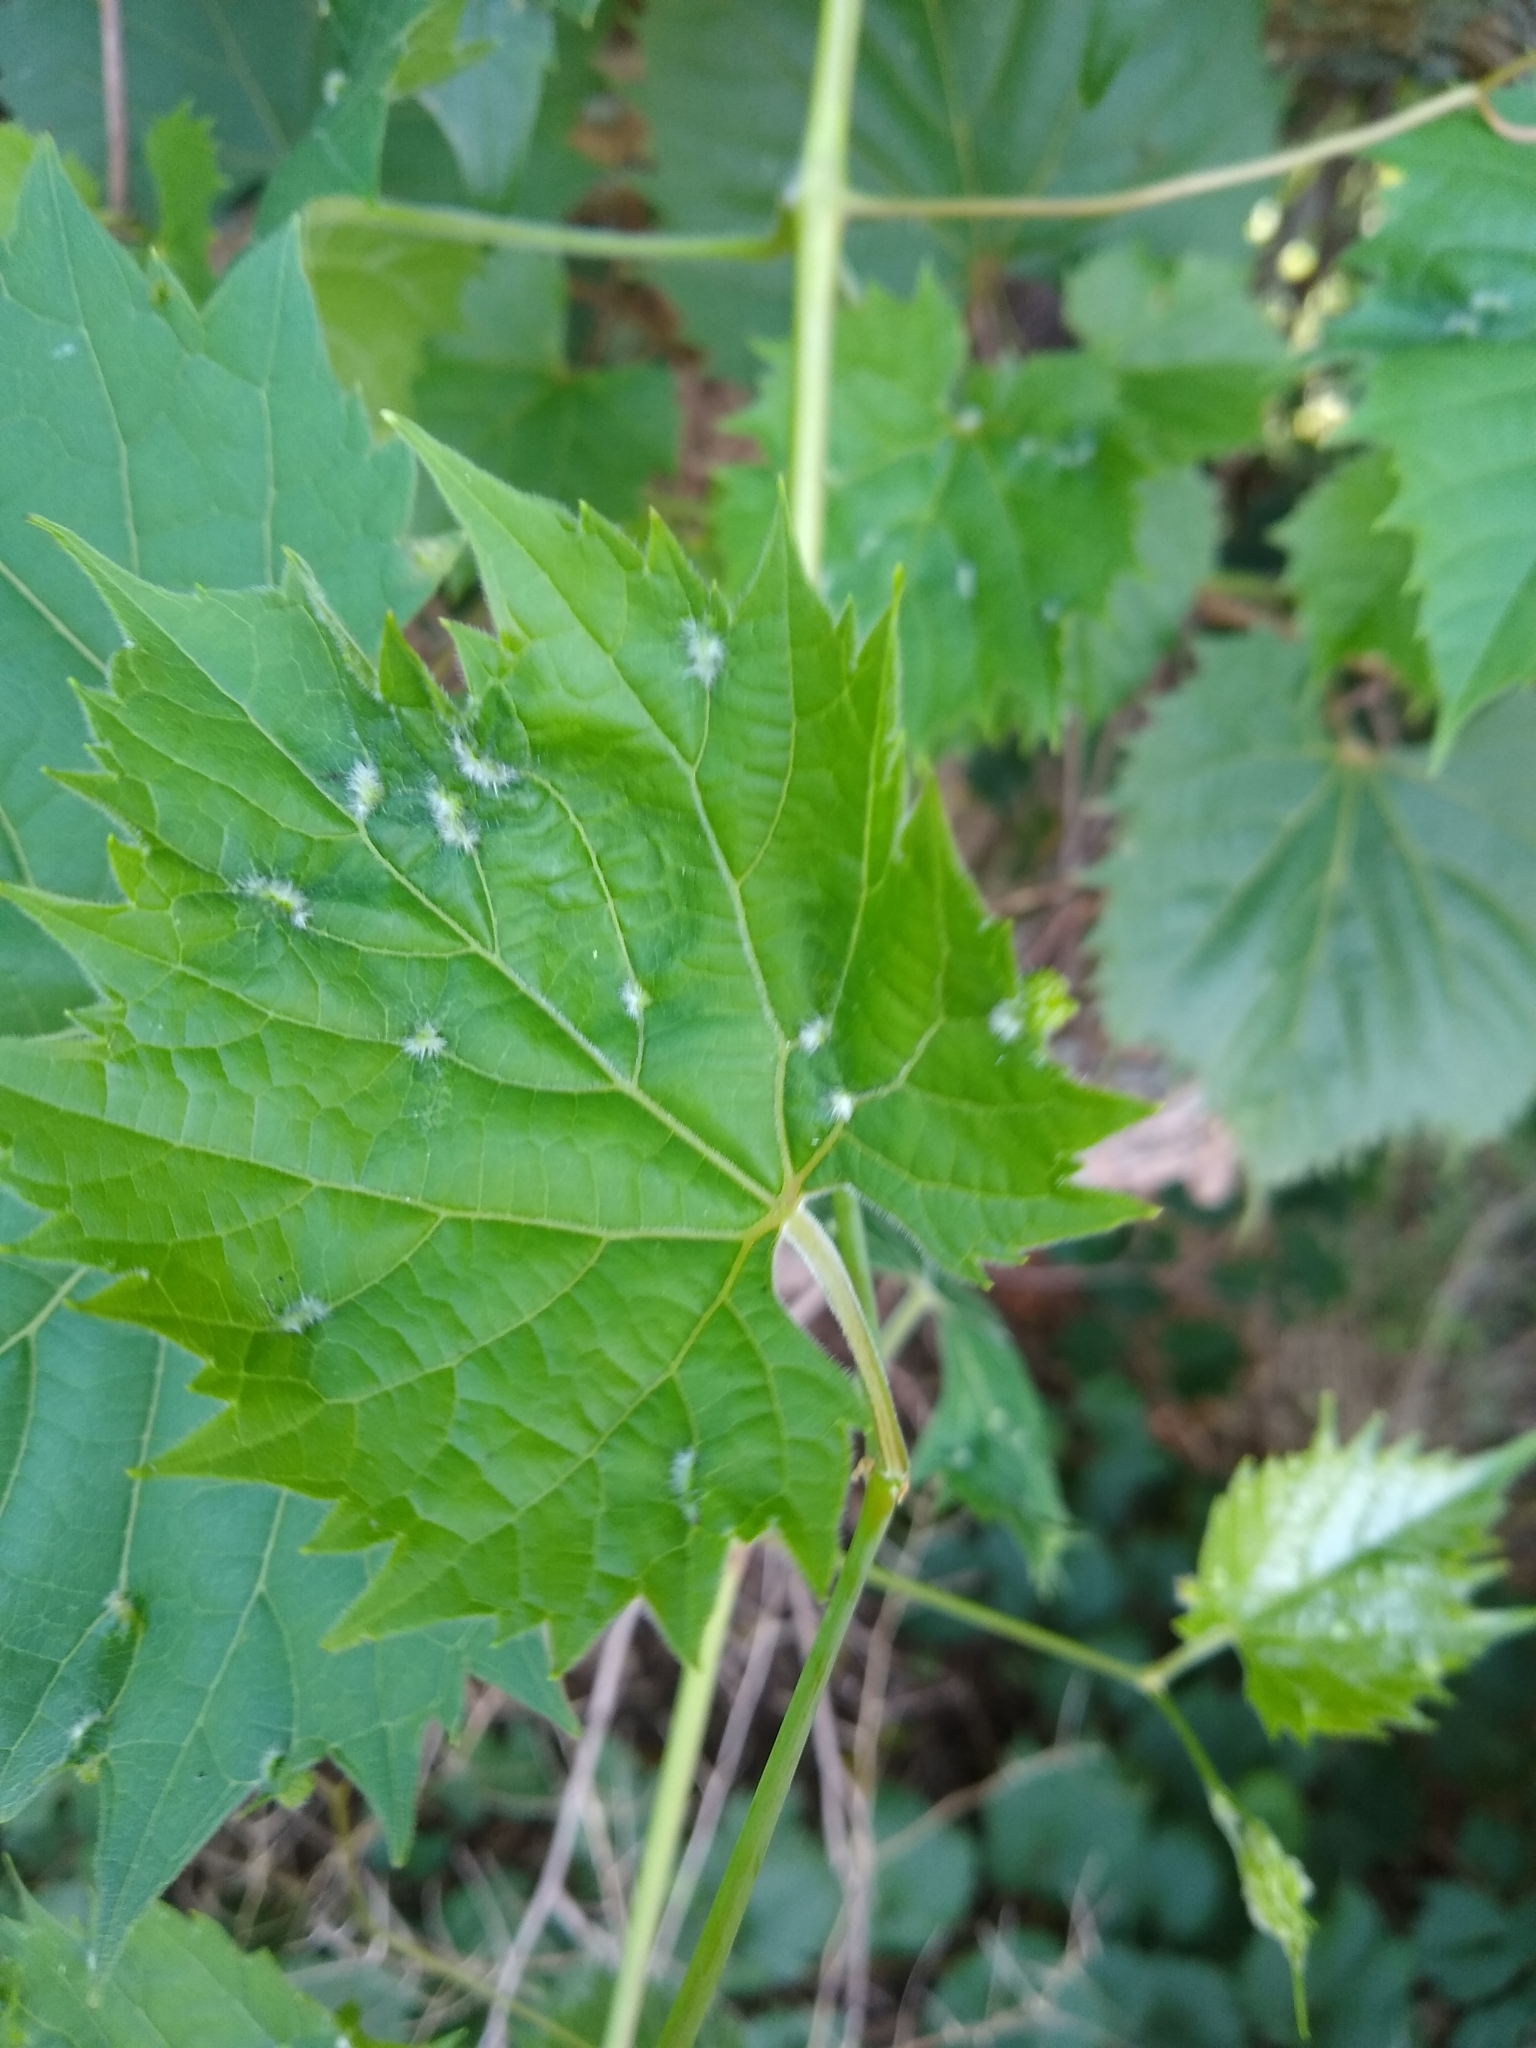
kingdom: Animalia
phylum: Arthropoda
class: Insecta
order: Hemiptera
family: Phylloxeridae
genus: Daktulosphaira
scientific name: Daktulosphaira vitifoliae
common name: Grape phylloxera
